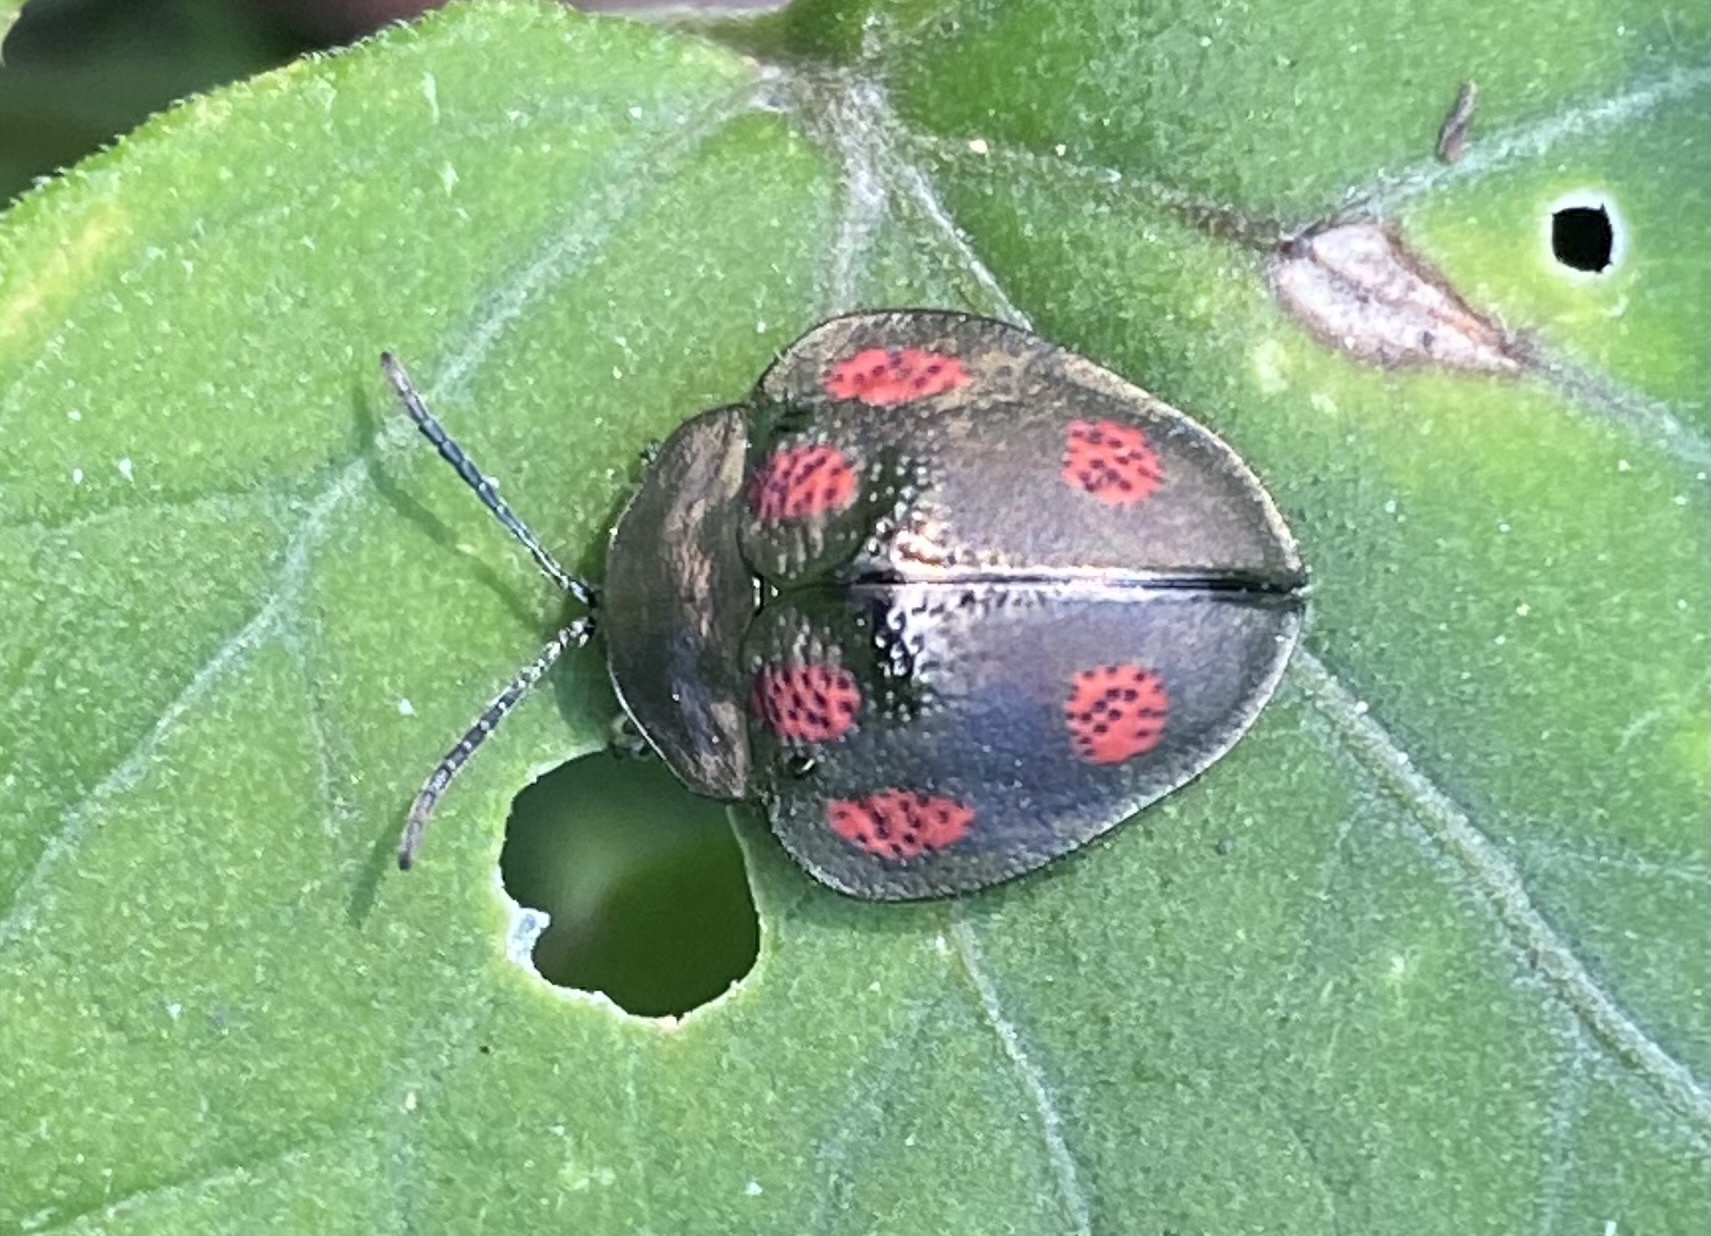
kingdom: Animalia
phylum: Arthropoda
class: Insecta
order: Coleoptera
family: Chrysomelidae
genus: Stolas
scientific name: Stolas punicea
